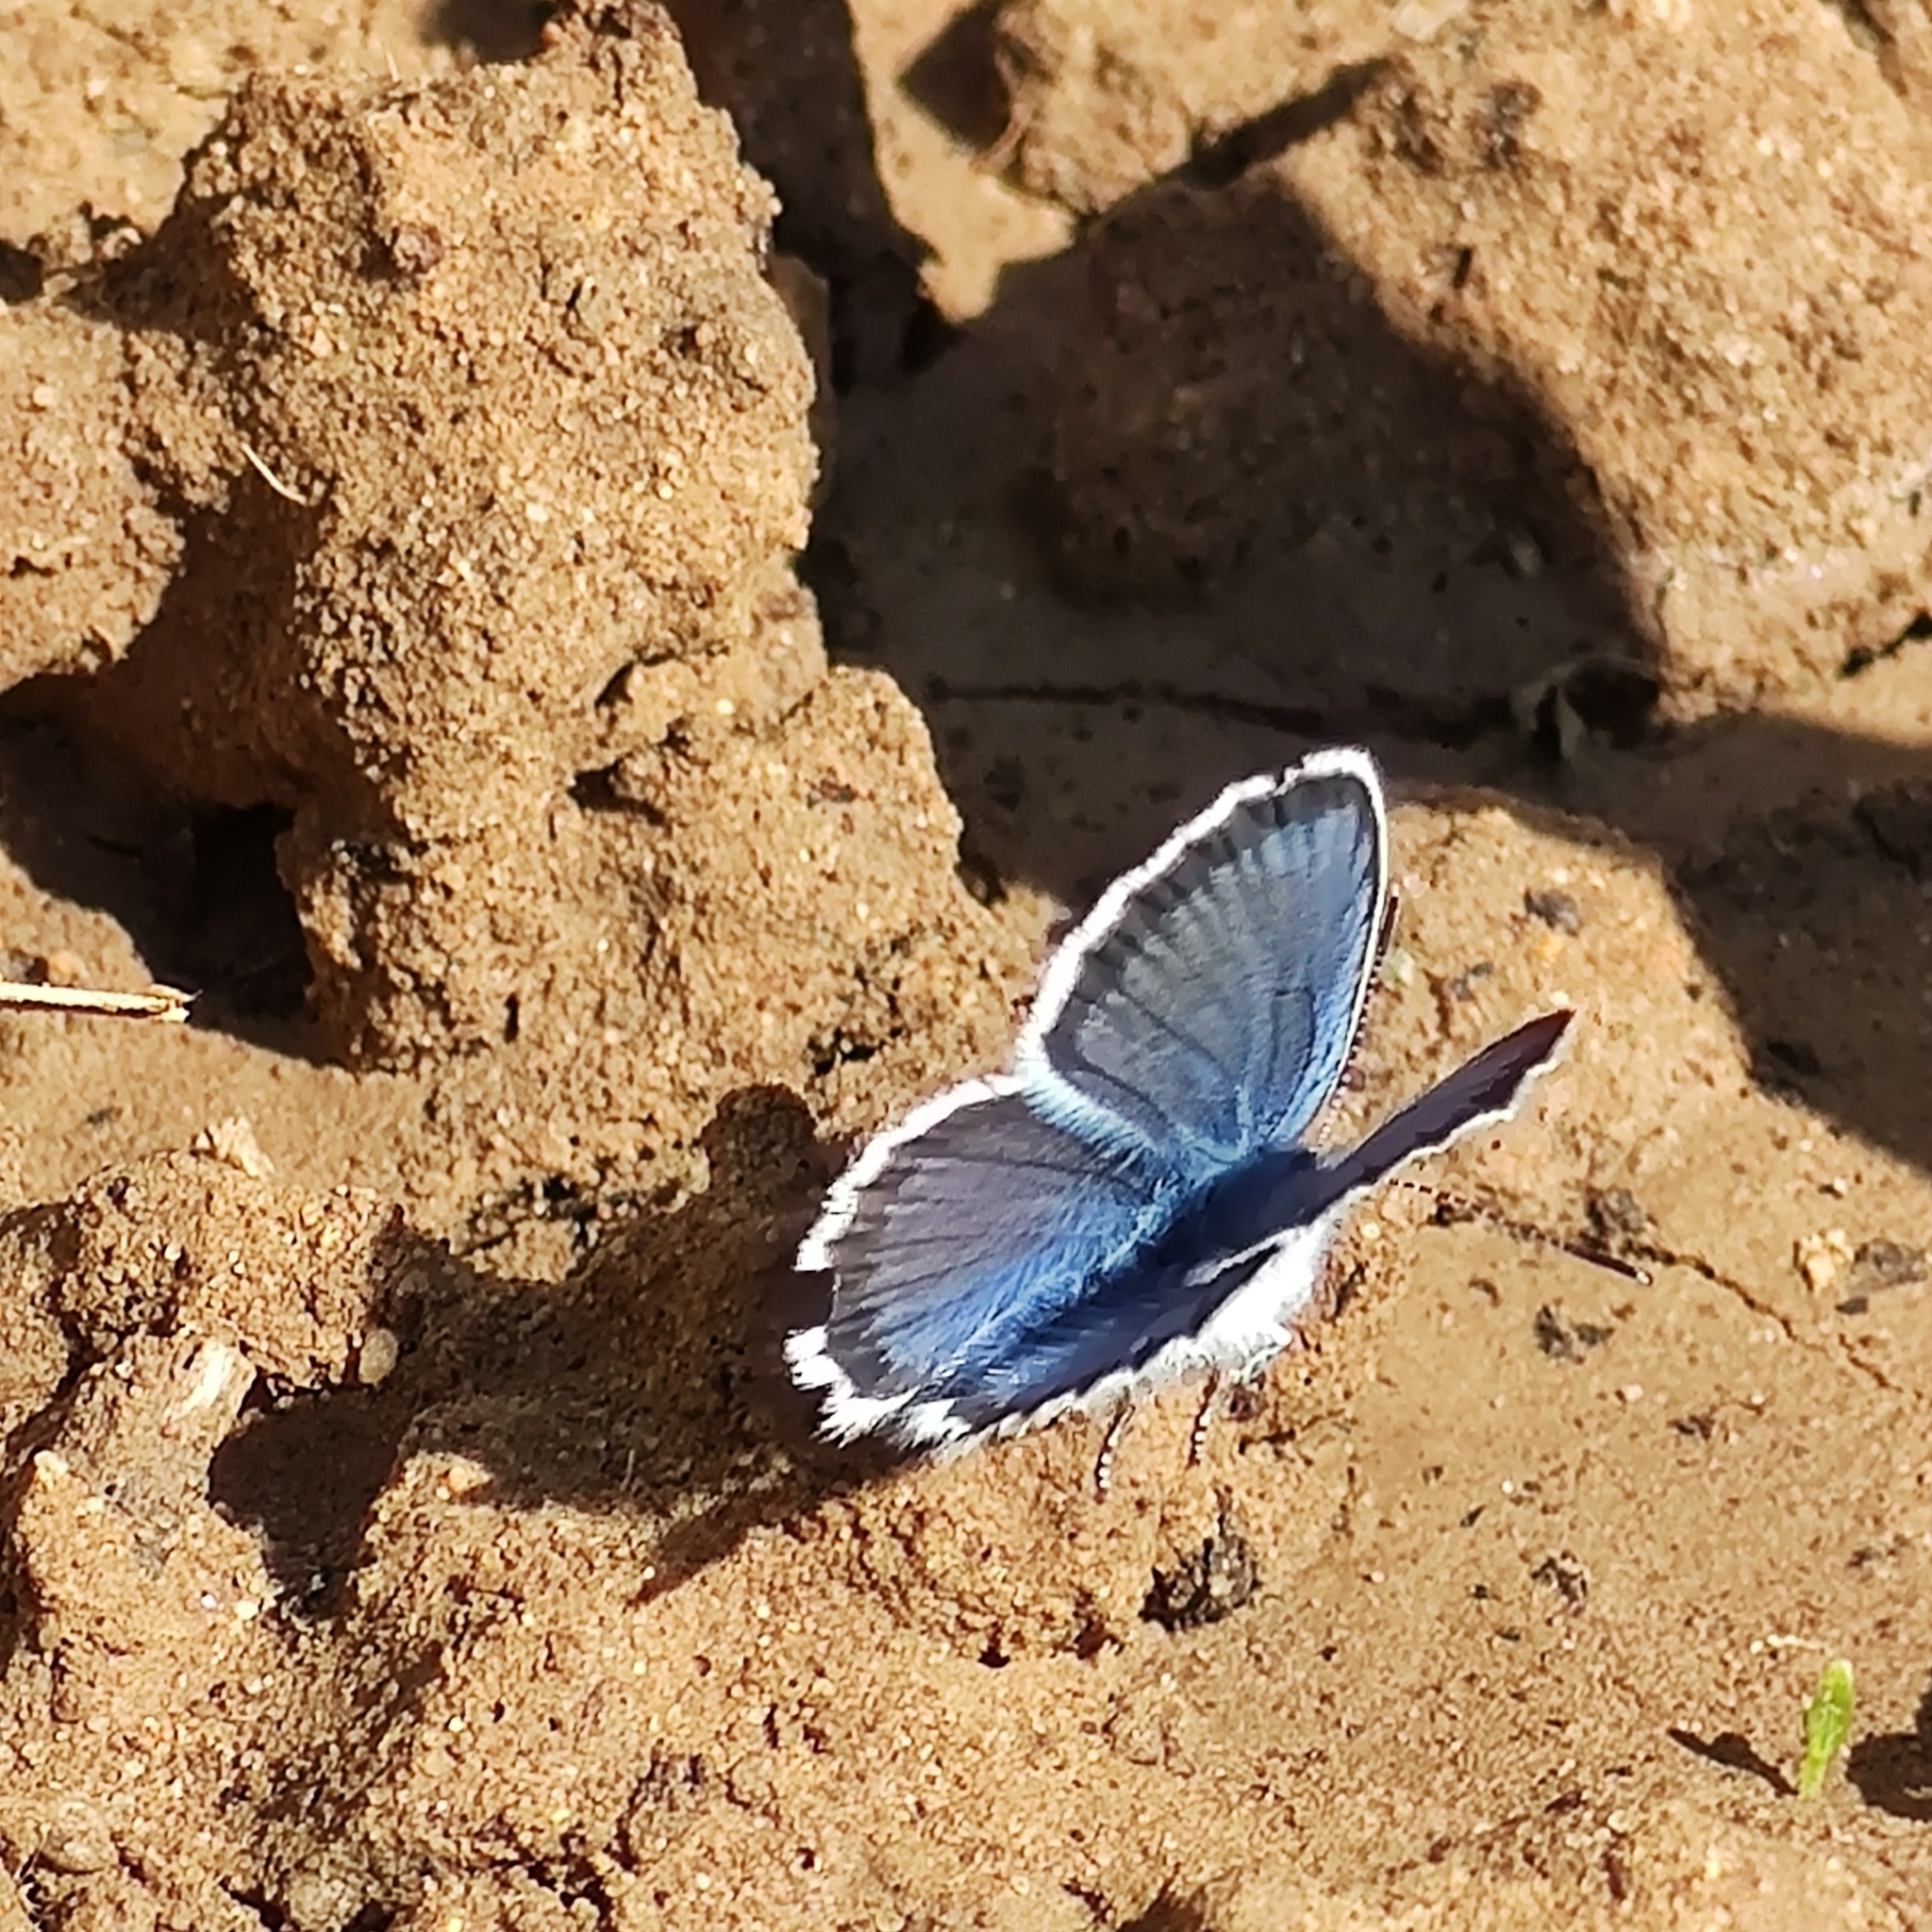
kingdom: Animalia
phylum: Arthropoda
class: Insecta
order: Lepidoptera
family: Lycaenidae
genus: Plebejus
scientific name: Plebejus argus
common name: Silver-studded blue
